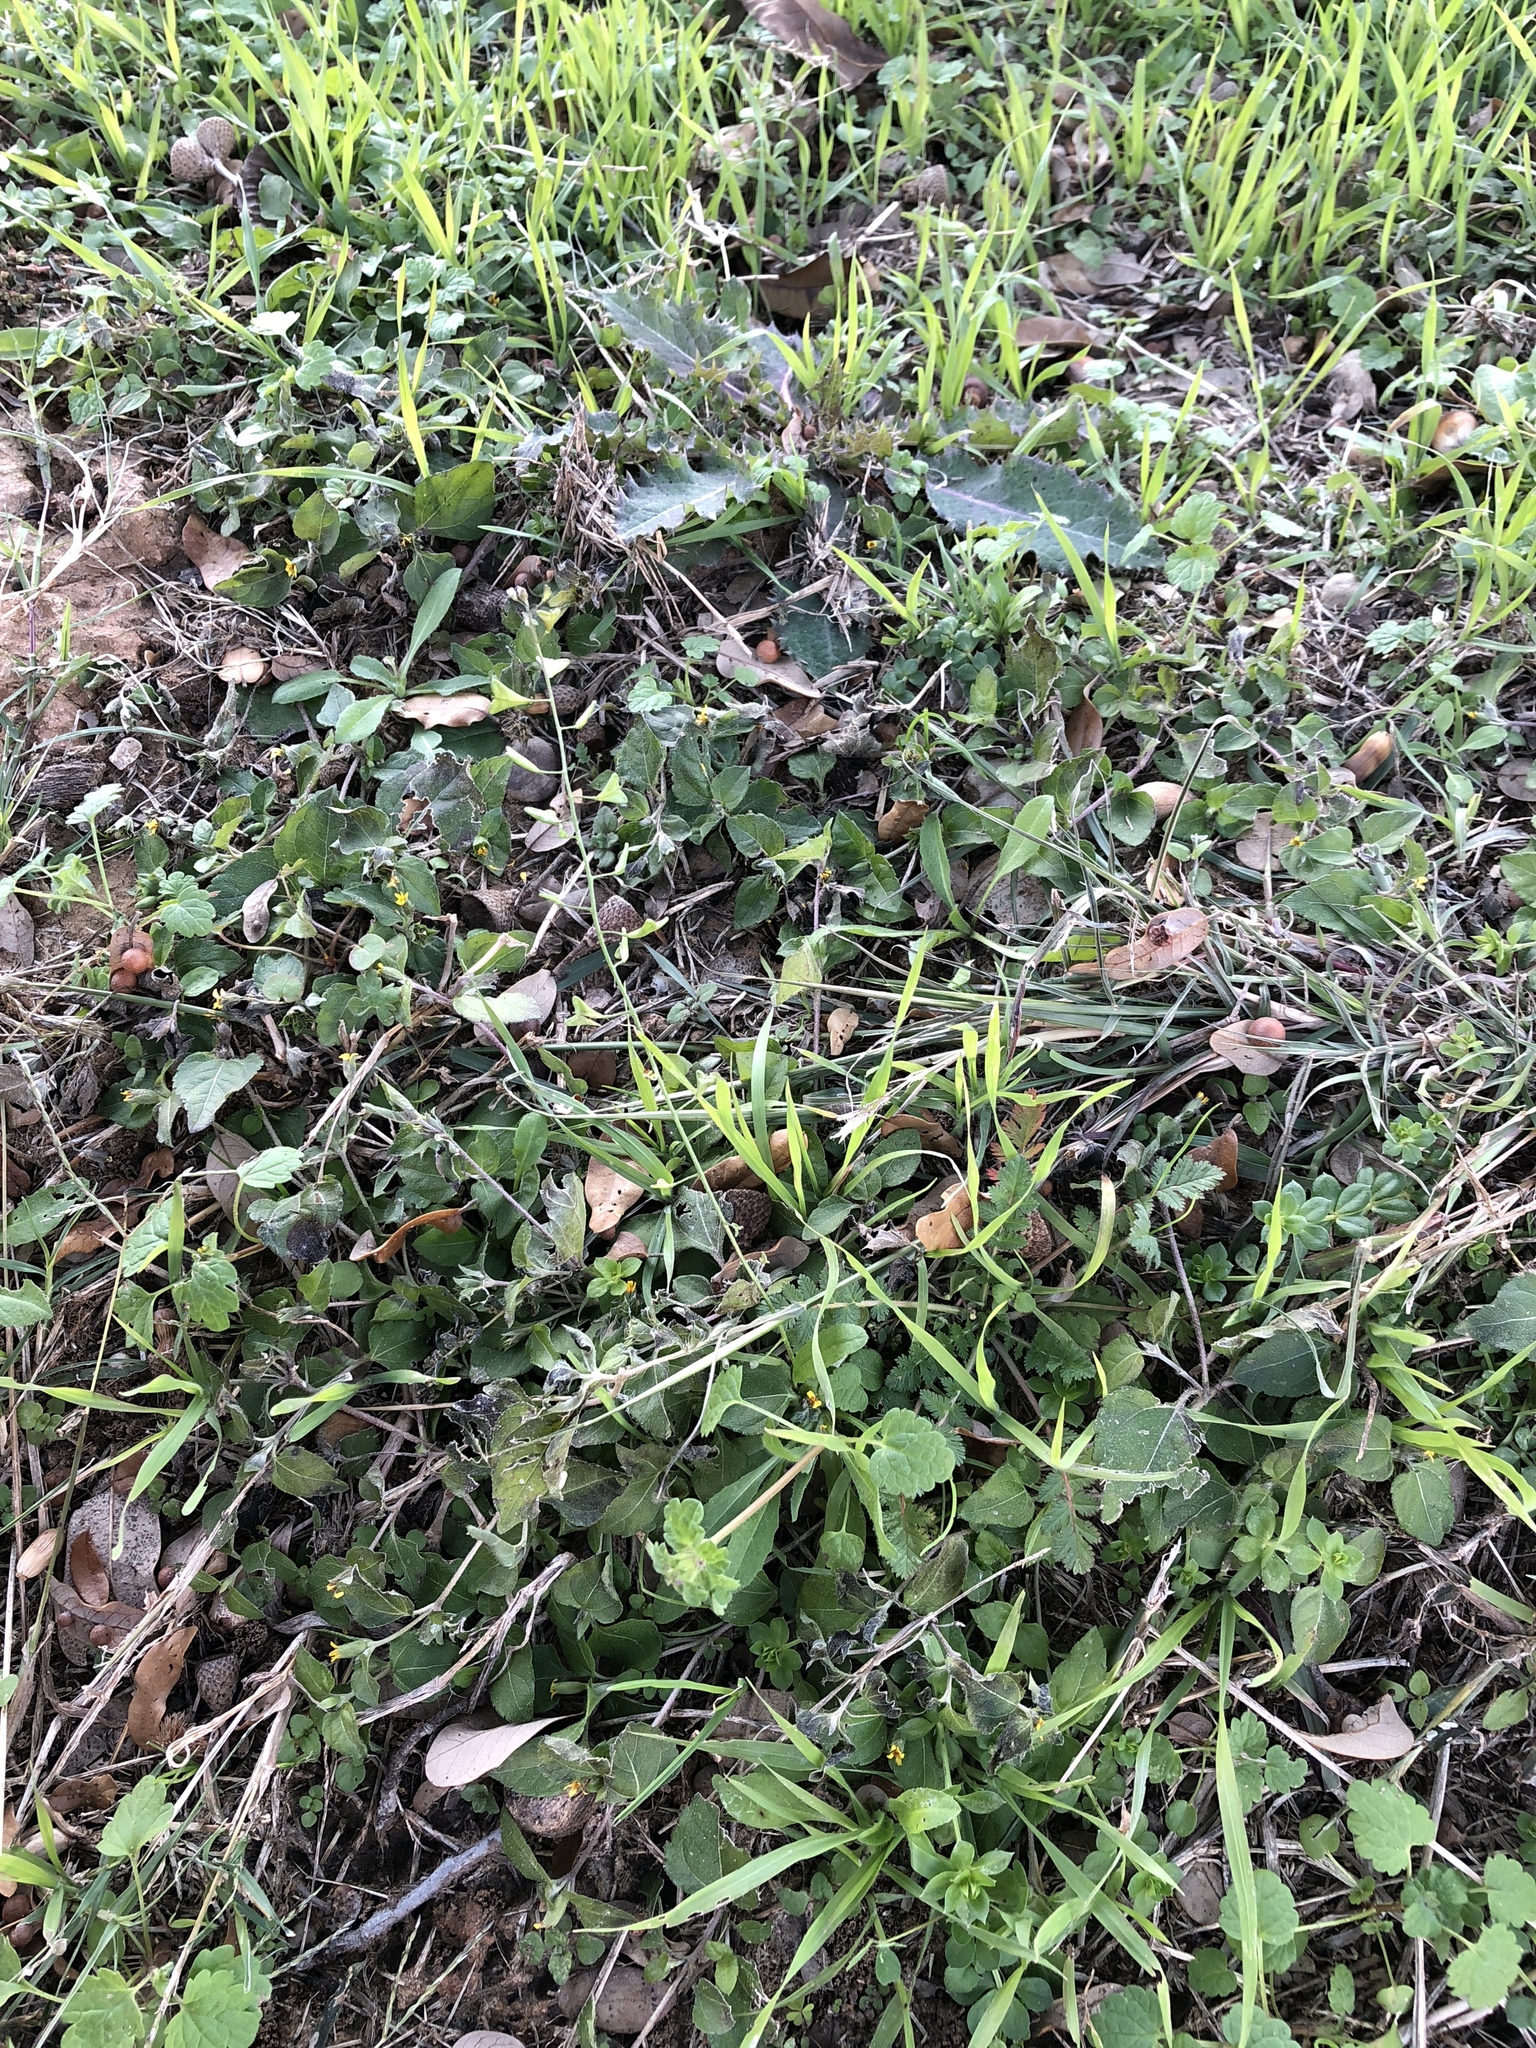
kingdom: Plantae
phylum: Tracheophyta
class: Magnoliopsida
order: Brassicales
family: Brassicaceae
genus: Capsella
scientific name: Capsella bursa-pastoris
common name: Shepherd's purse
